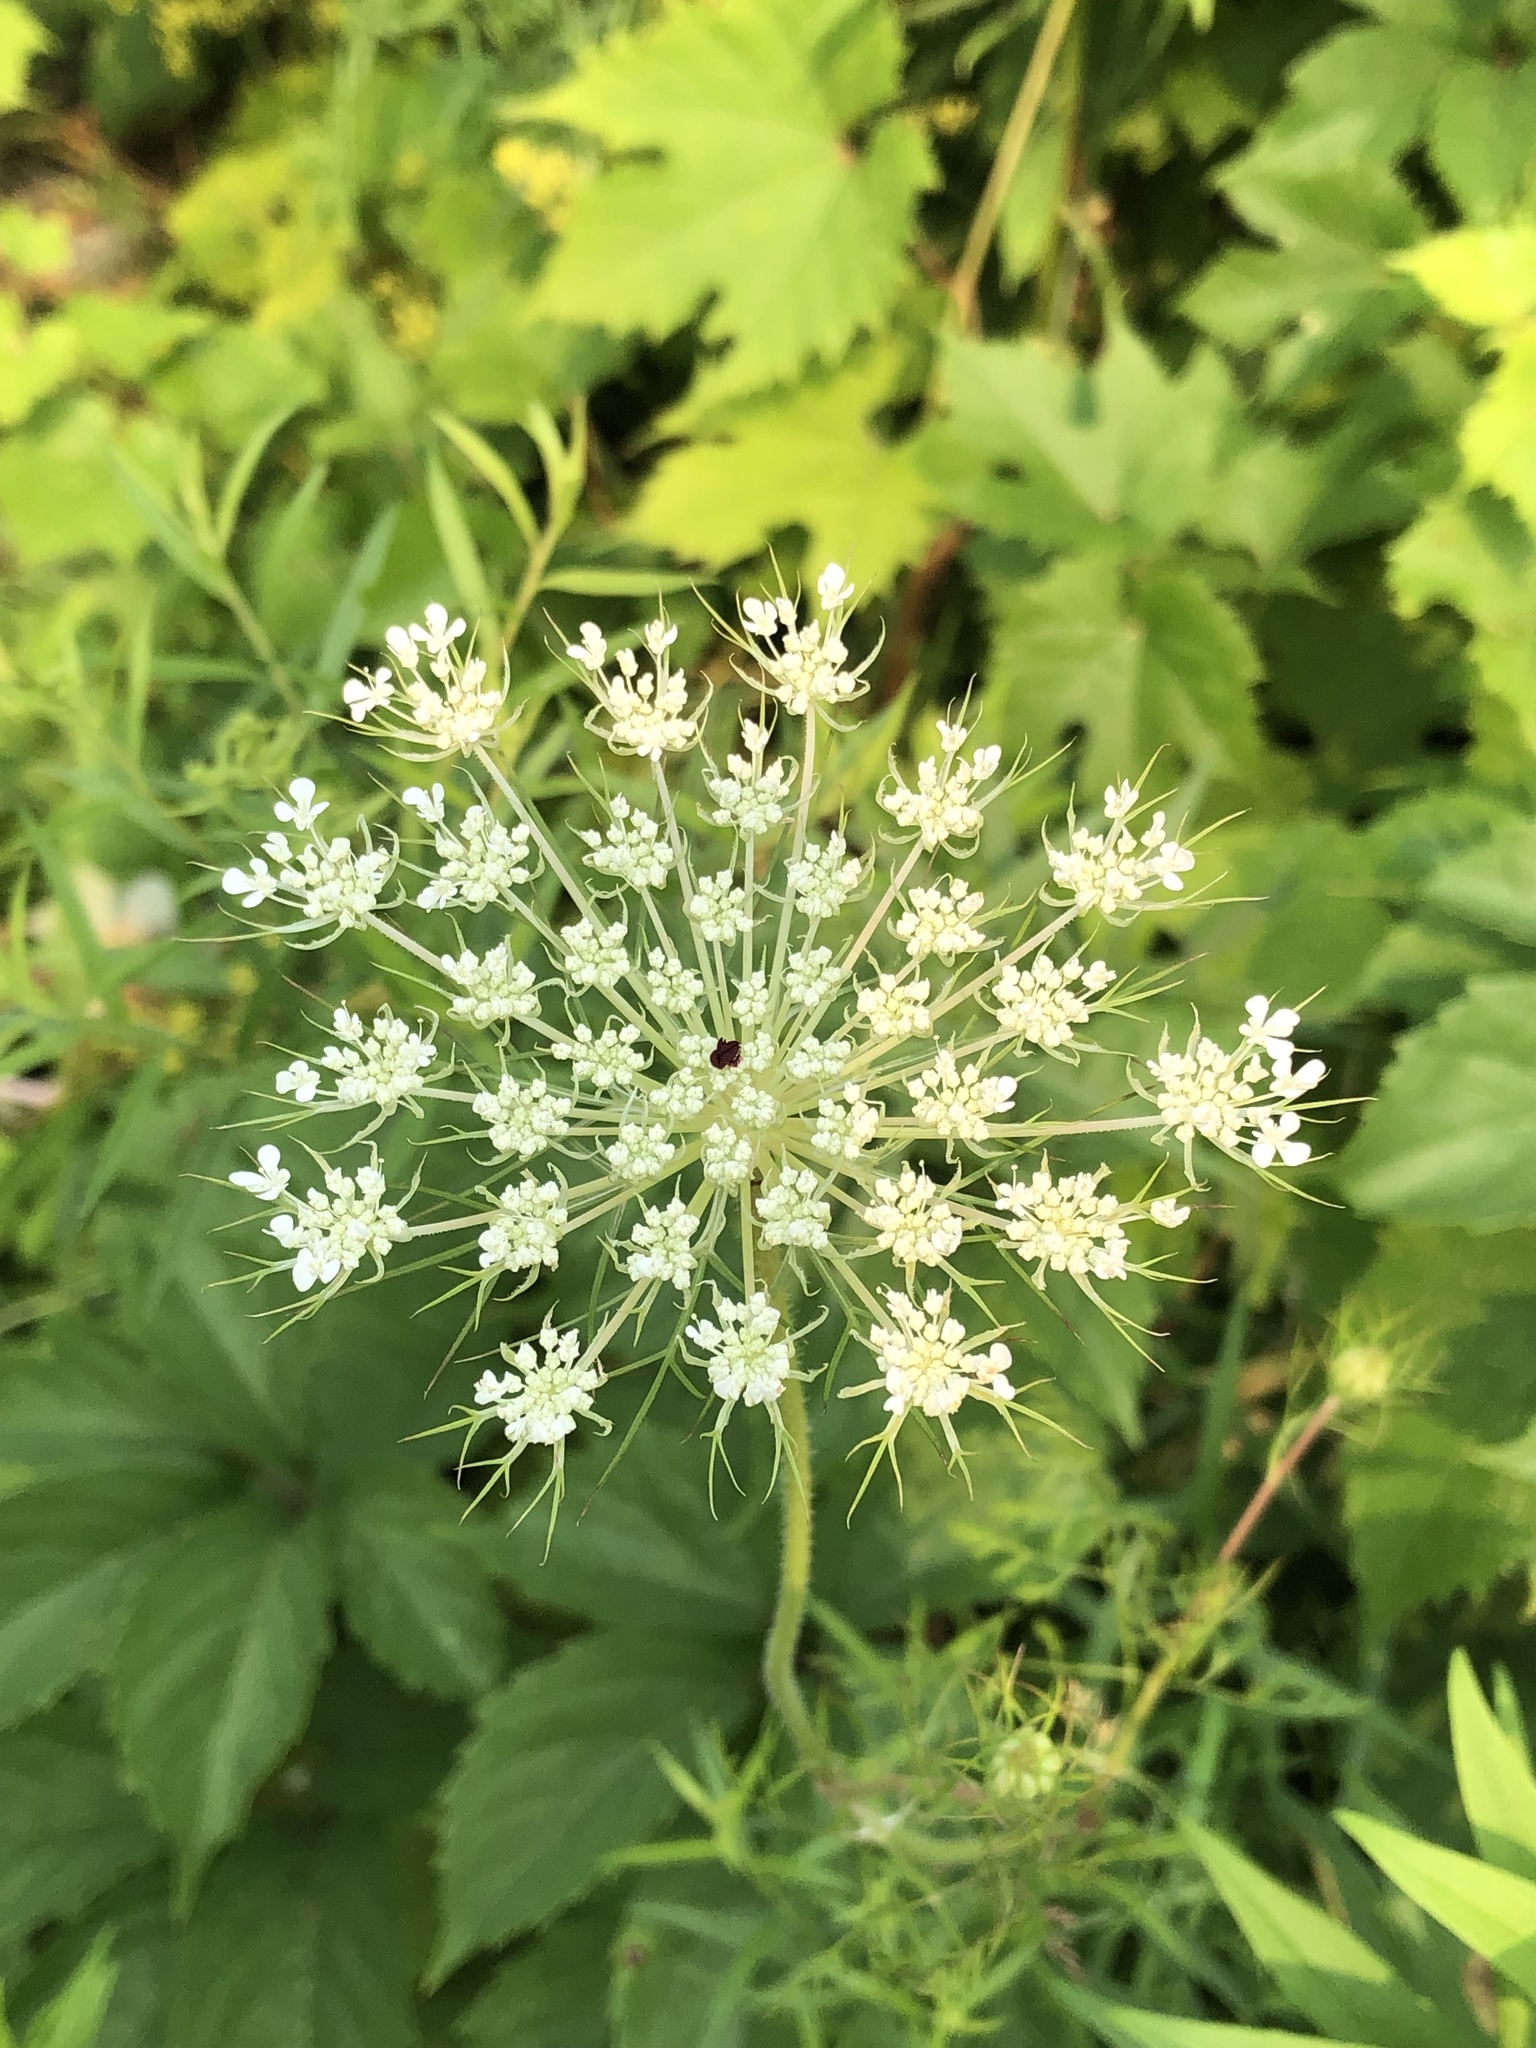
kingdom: Plantae
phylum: Tracheophyta
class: Magnoliopsida
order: Apiales
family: Apiaceae
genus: Daucus
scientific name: Daucus carota
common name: Wild carrot
